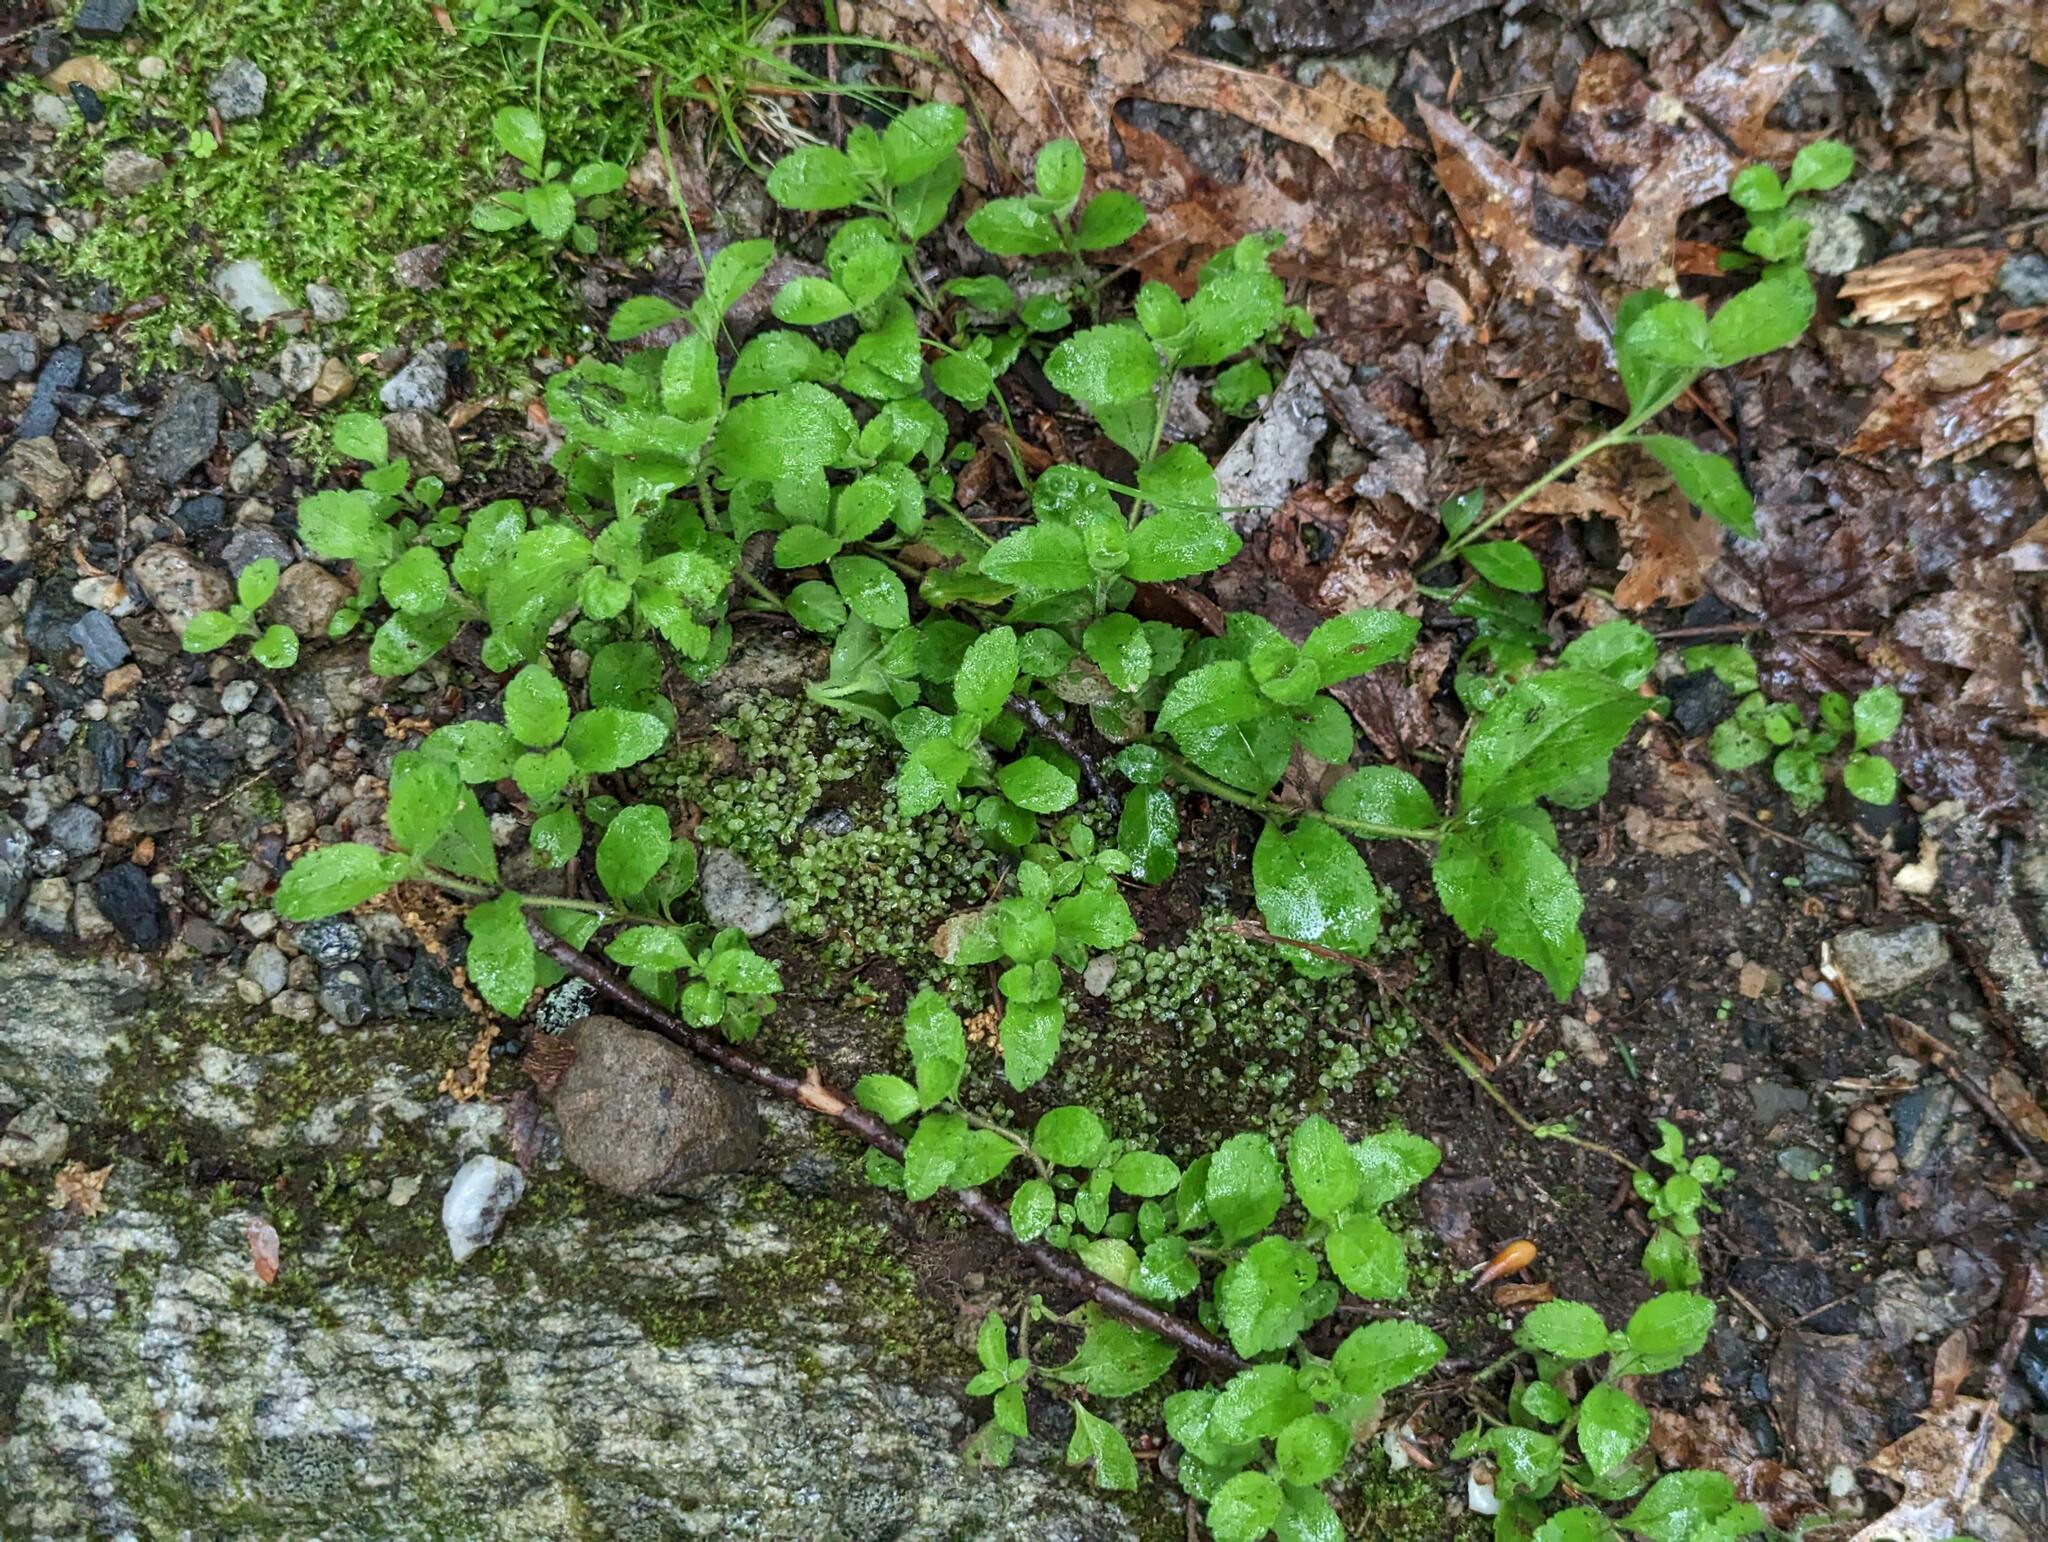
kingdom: Plantae
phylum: Tracheophyta
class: Magnoliopsida
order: Lamiales
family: Plantaginaceae
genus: Veronica
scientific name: Veronica officinalis
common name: Common speedwell
